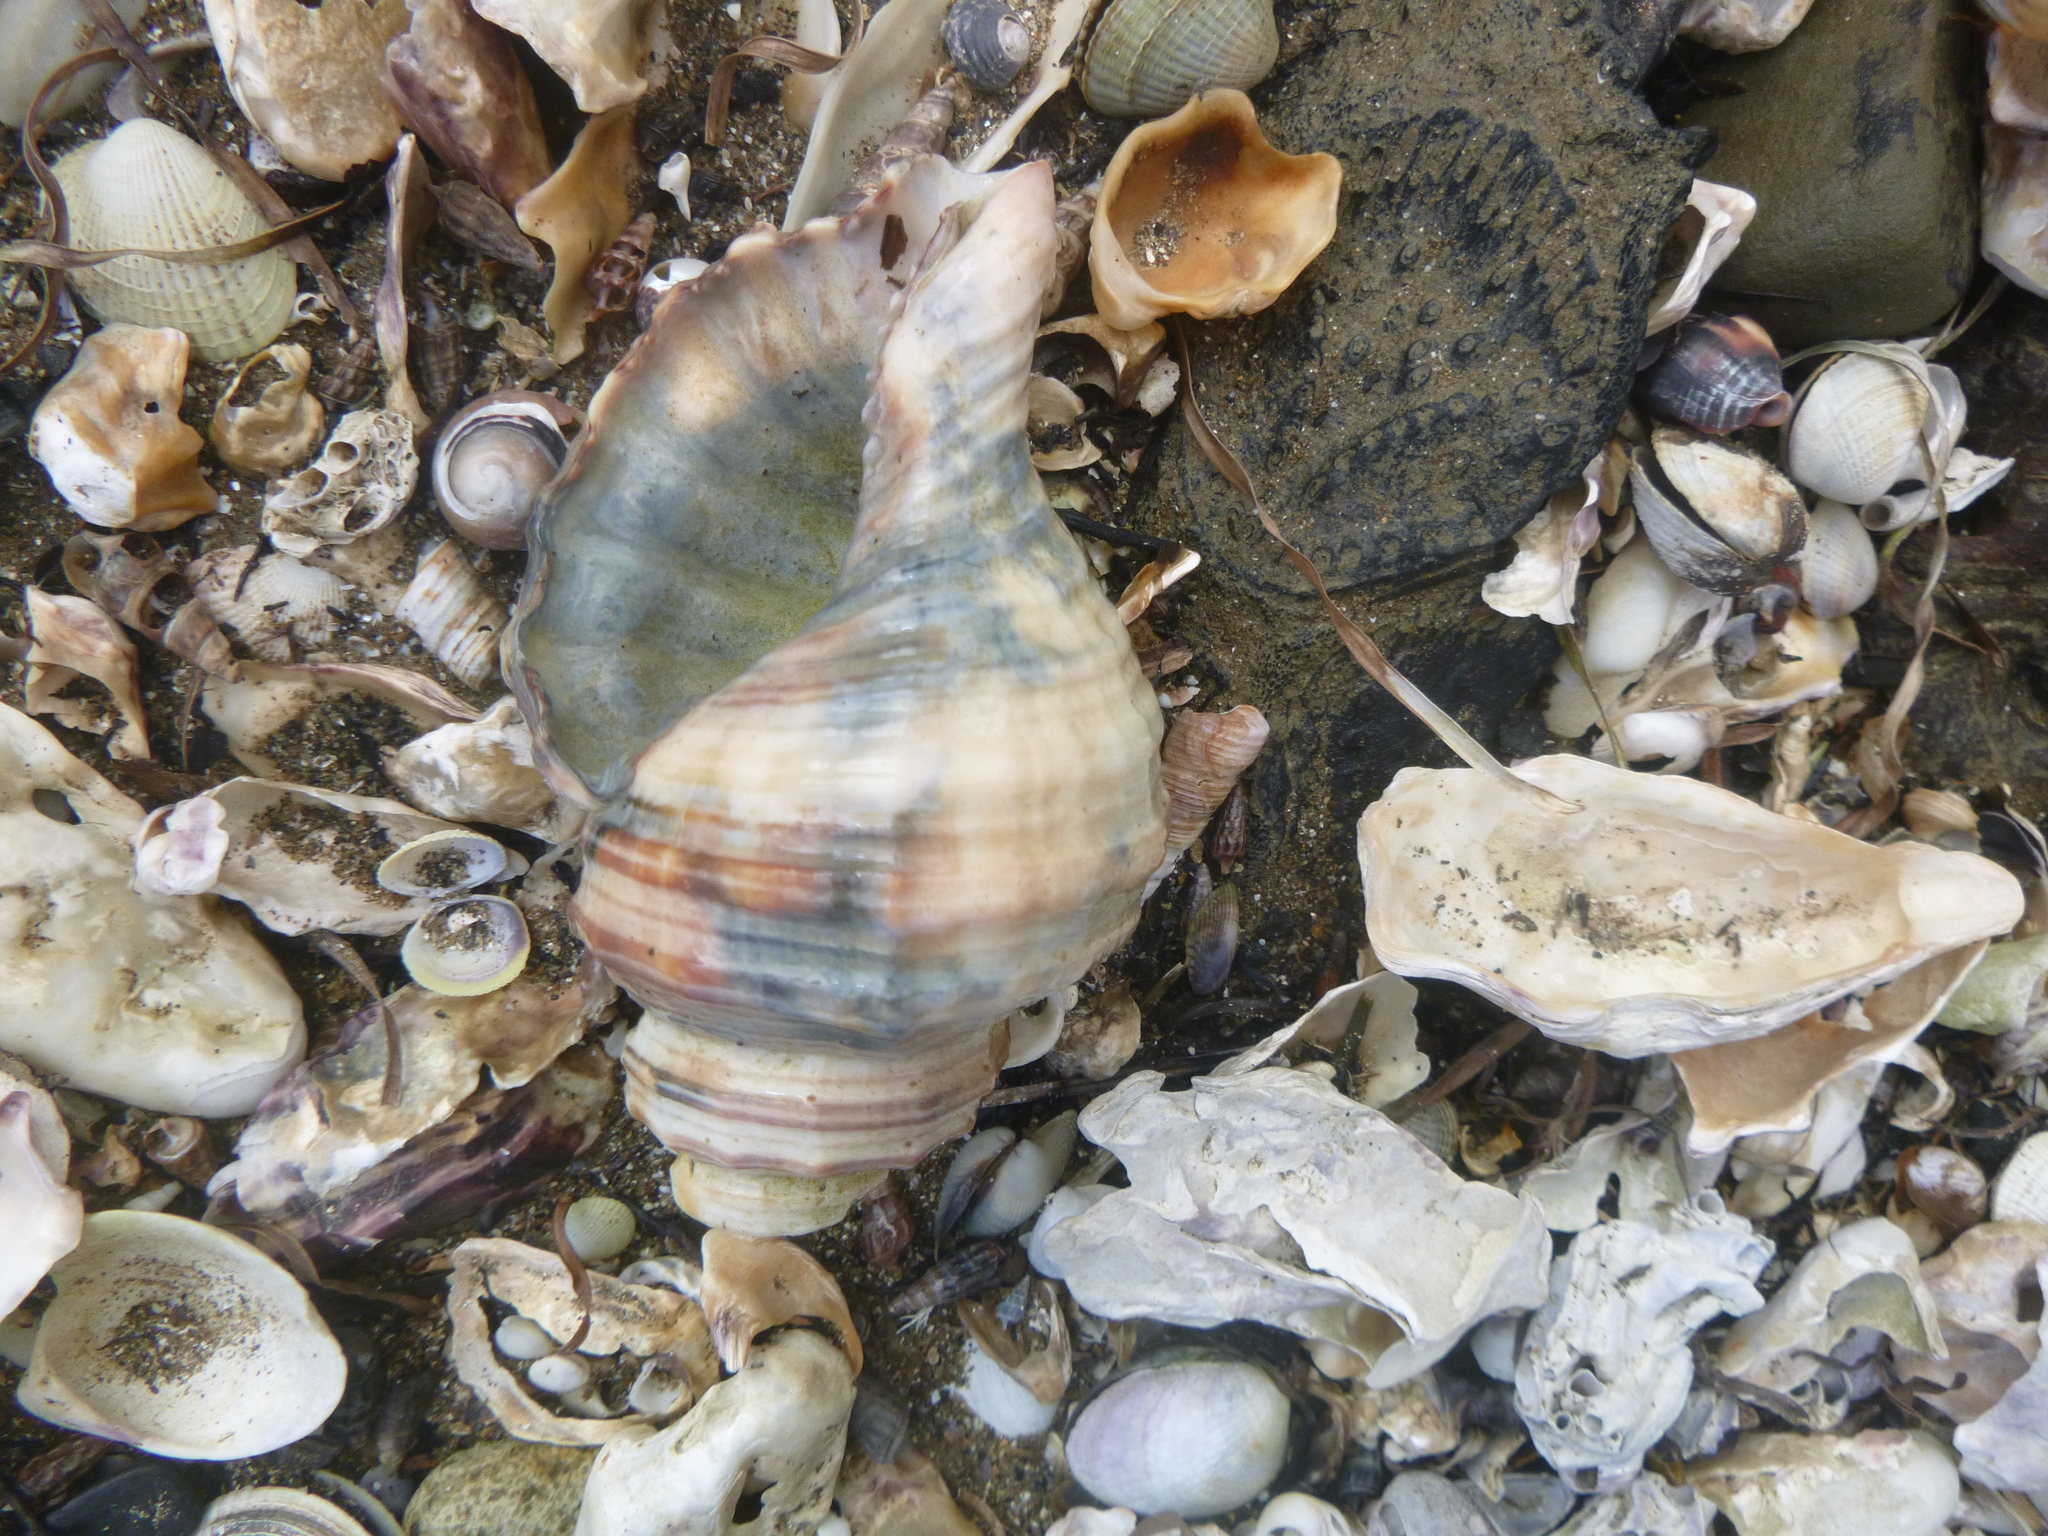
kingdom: Animalia
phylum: Mollusca
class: Gastropoda
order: Littorinimorpha
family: Cymatiidae
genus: Monoplex
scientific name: Monoplex parthenopeus
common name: Giant triton
